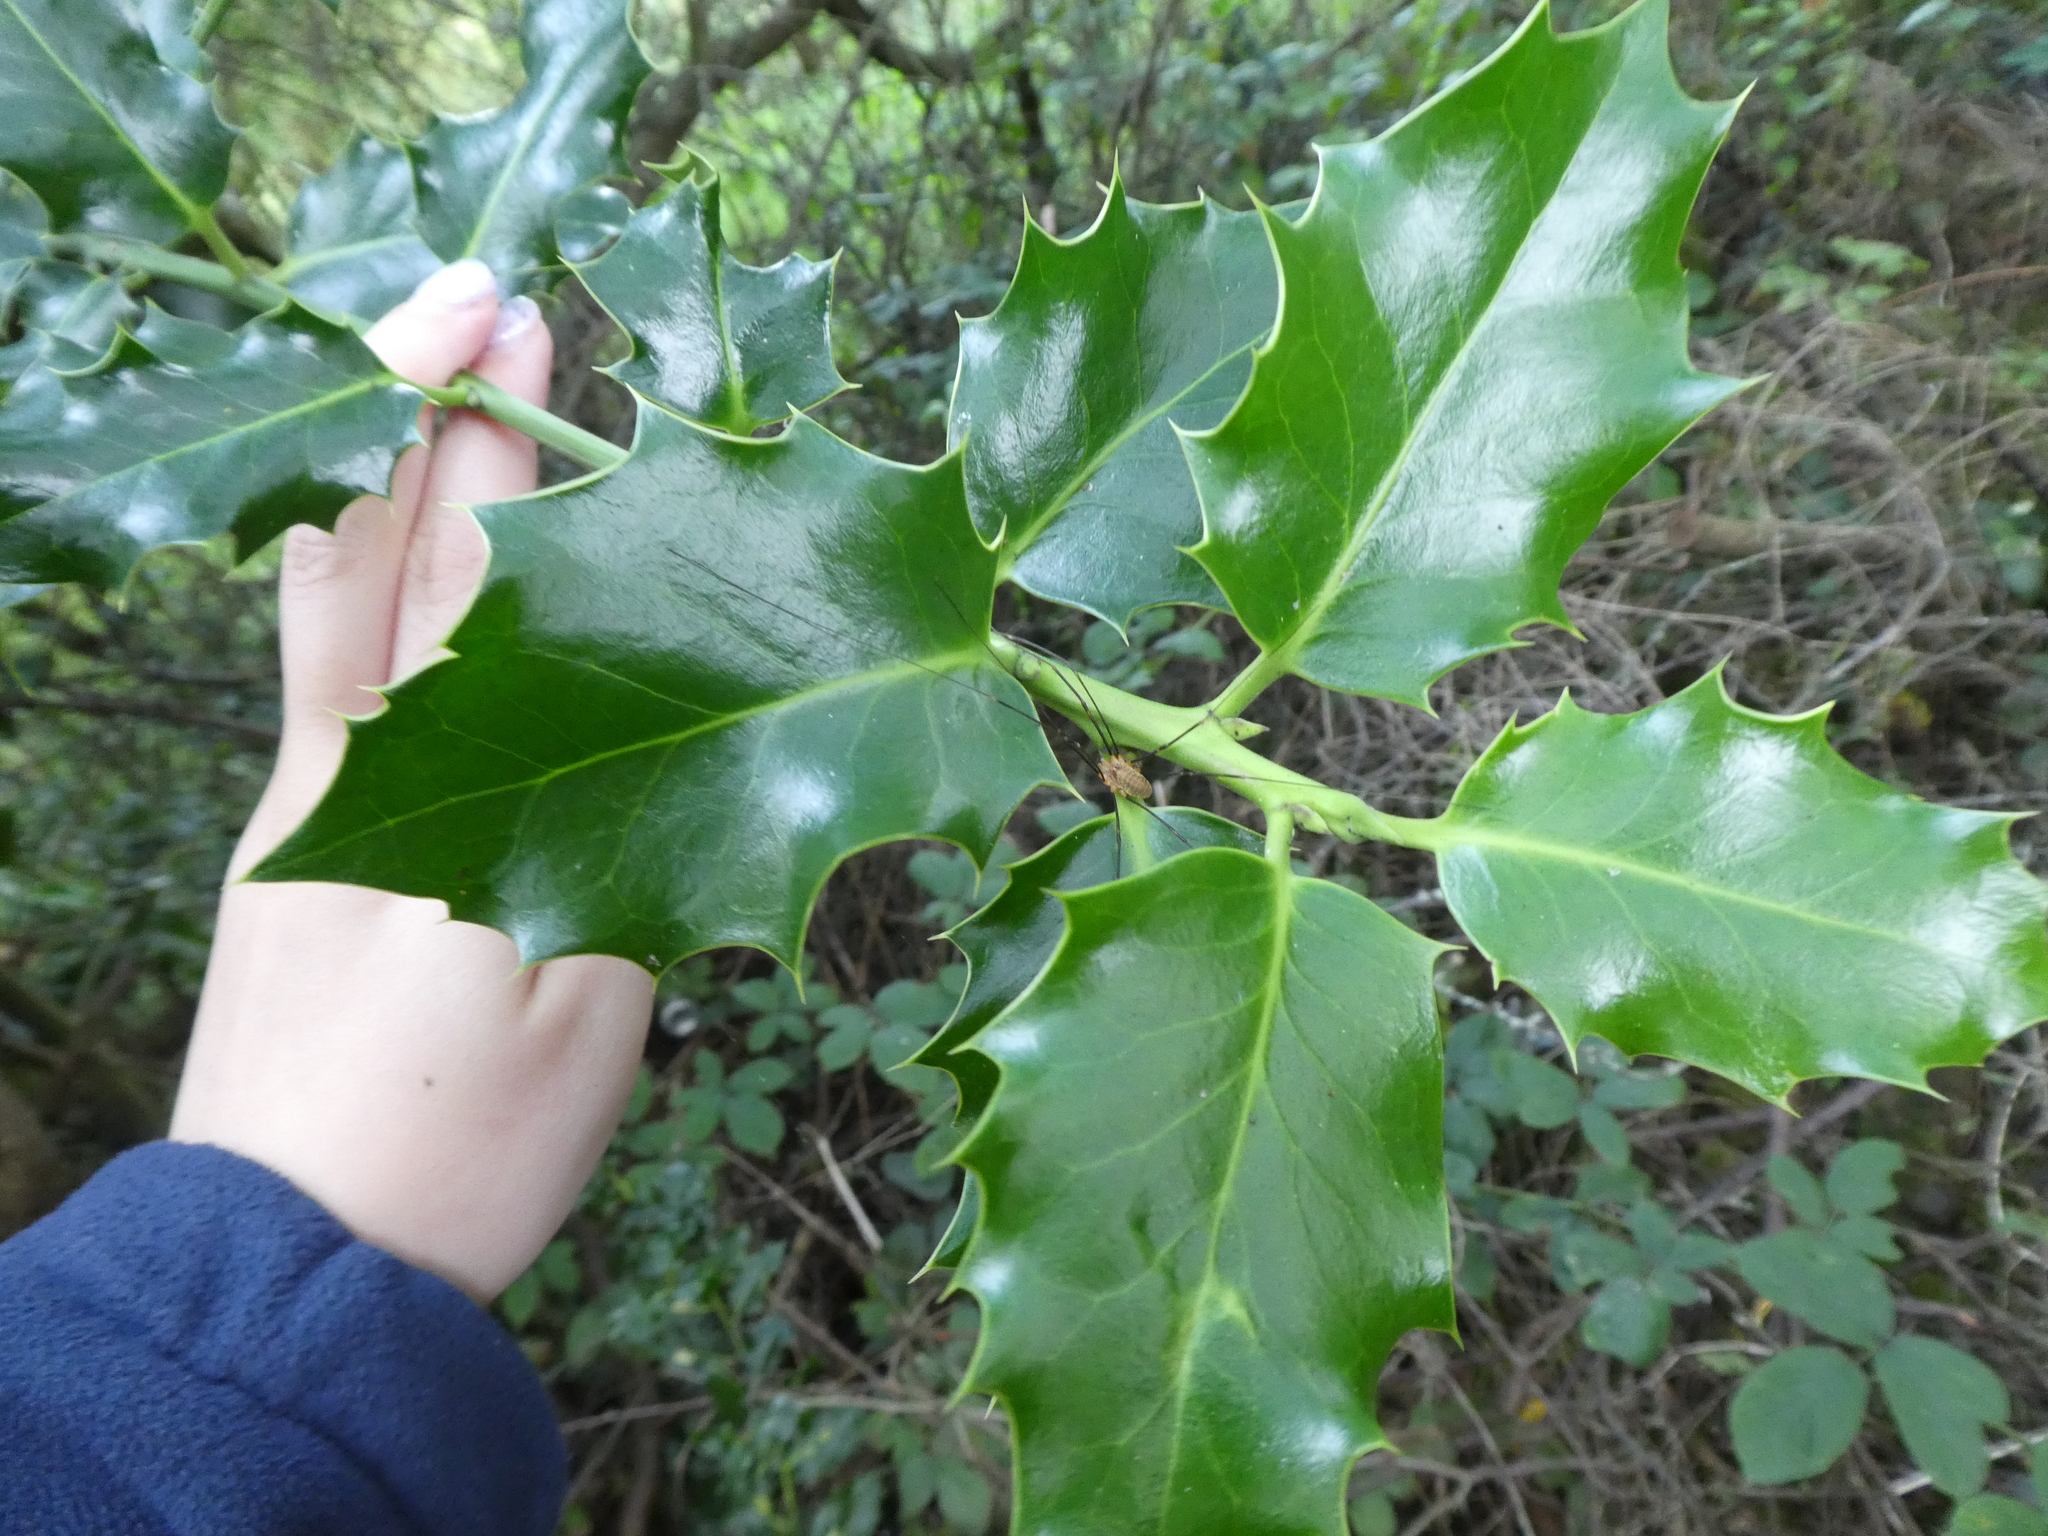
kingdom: Plantae
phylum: Tracheophyta
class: Magnoliopsida
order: Aquifoliales
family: Aquifoliaceae
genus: Ilex
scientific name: Ilex aquifolium
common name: English holly
